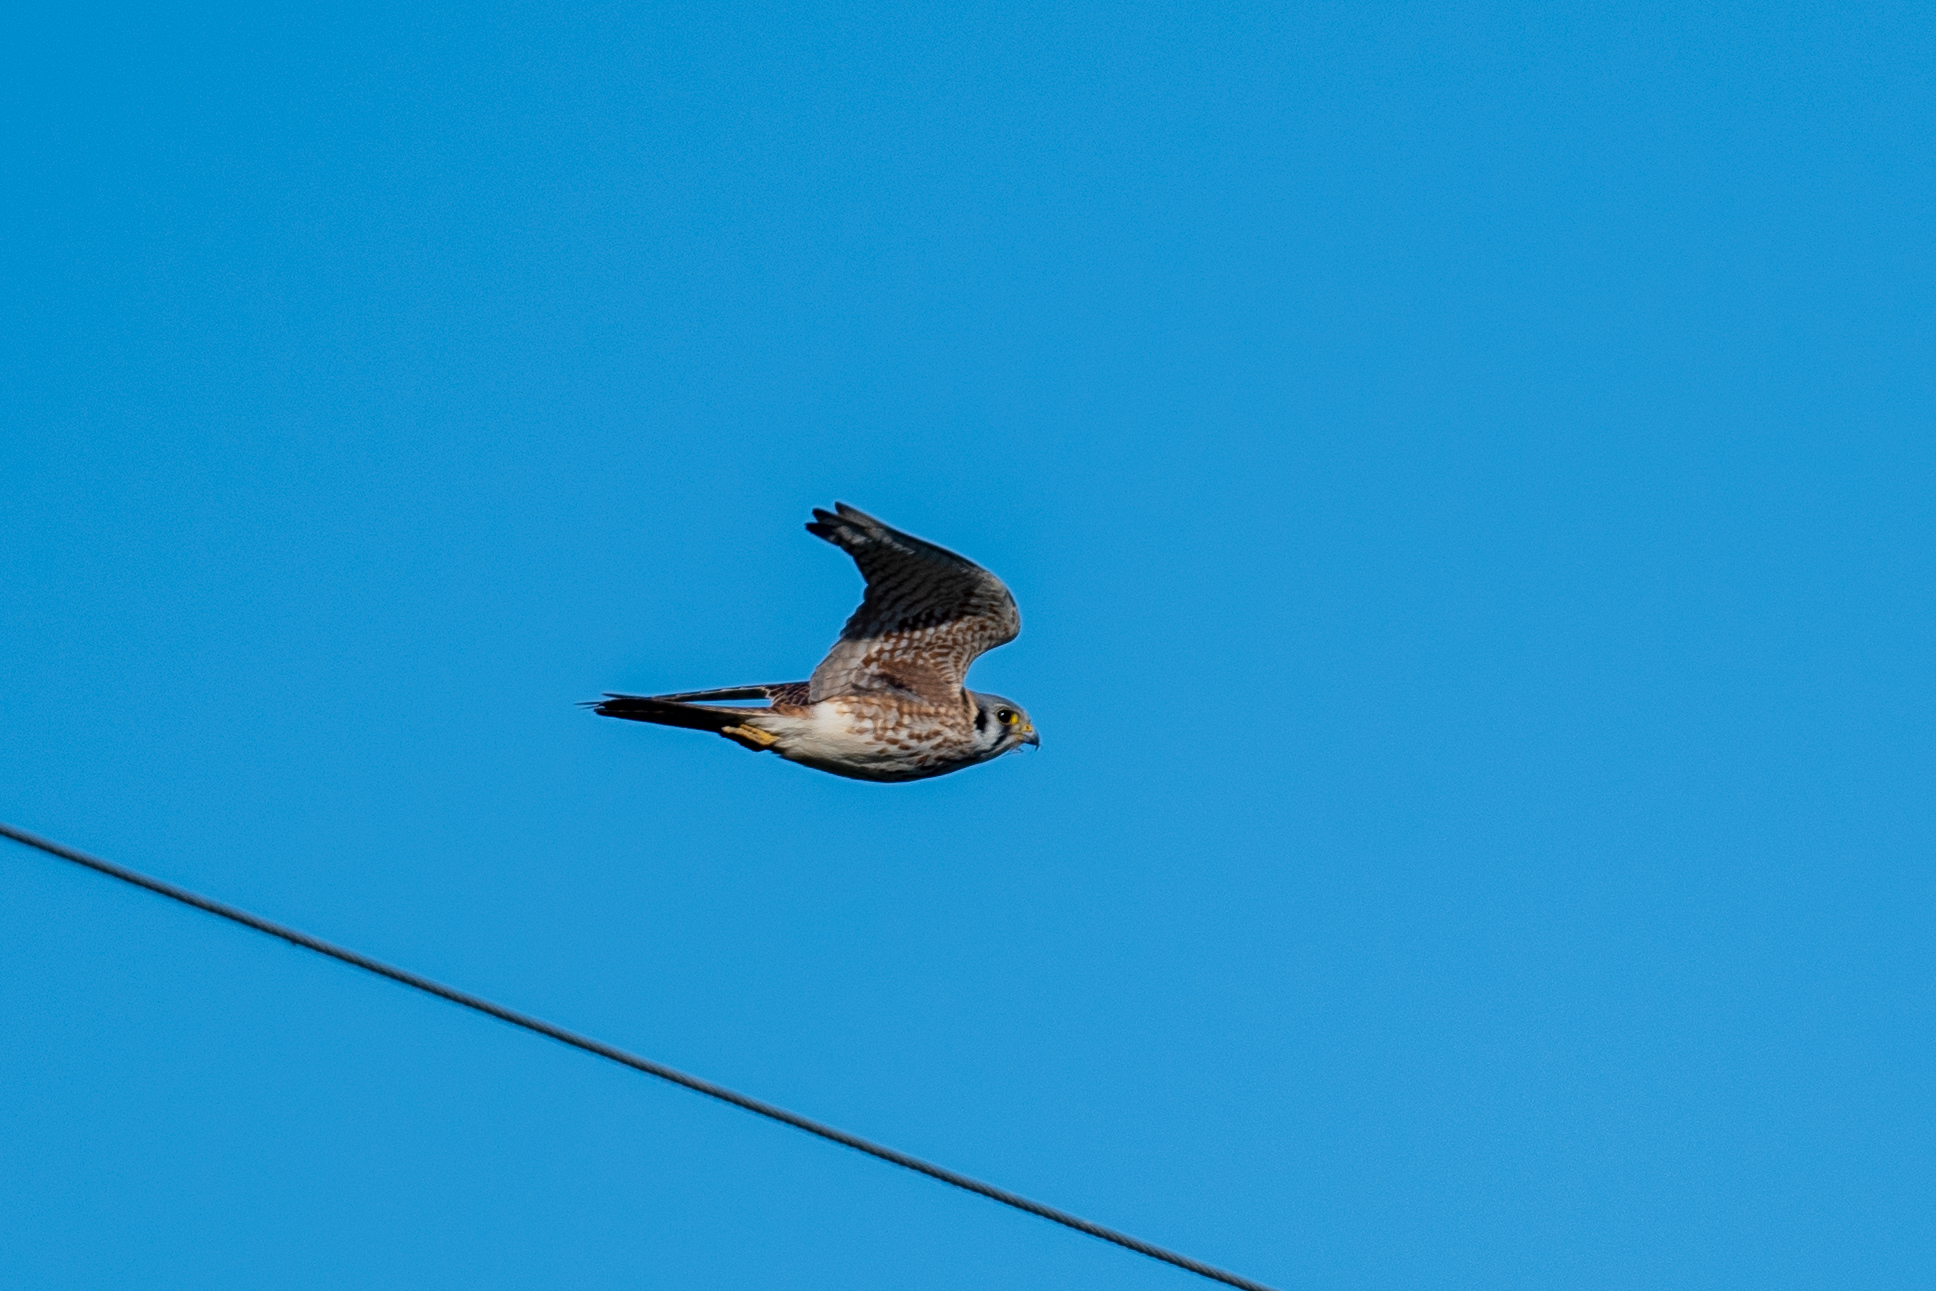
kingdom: Animalia
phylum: Chordata
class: Aves
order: Falconiformes
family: Falconidae
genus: Falco
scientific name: Falco sparverius
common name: American kestrel
